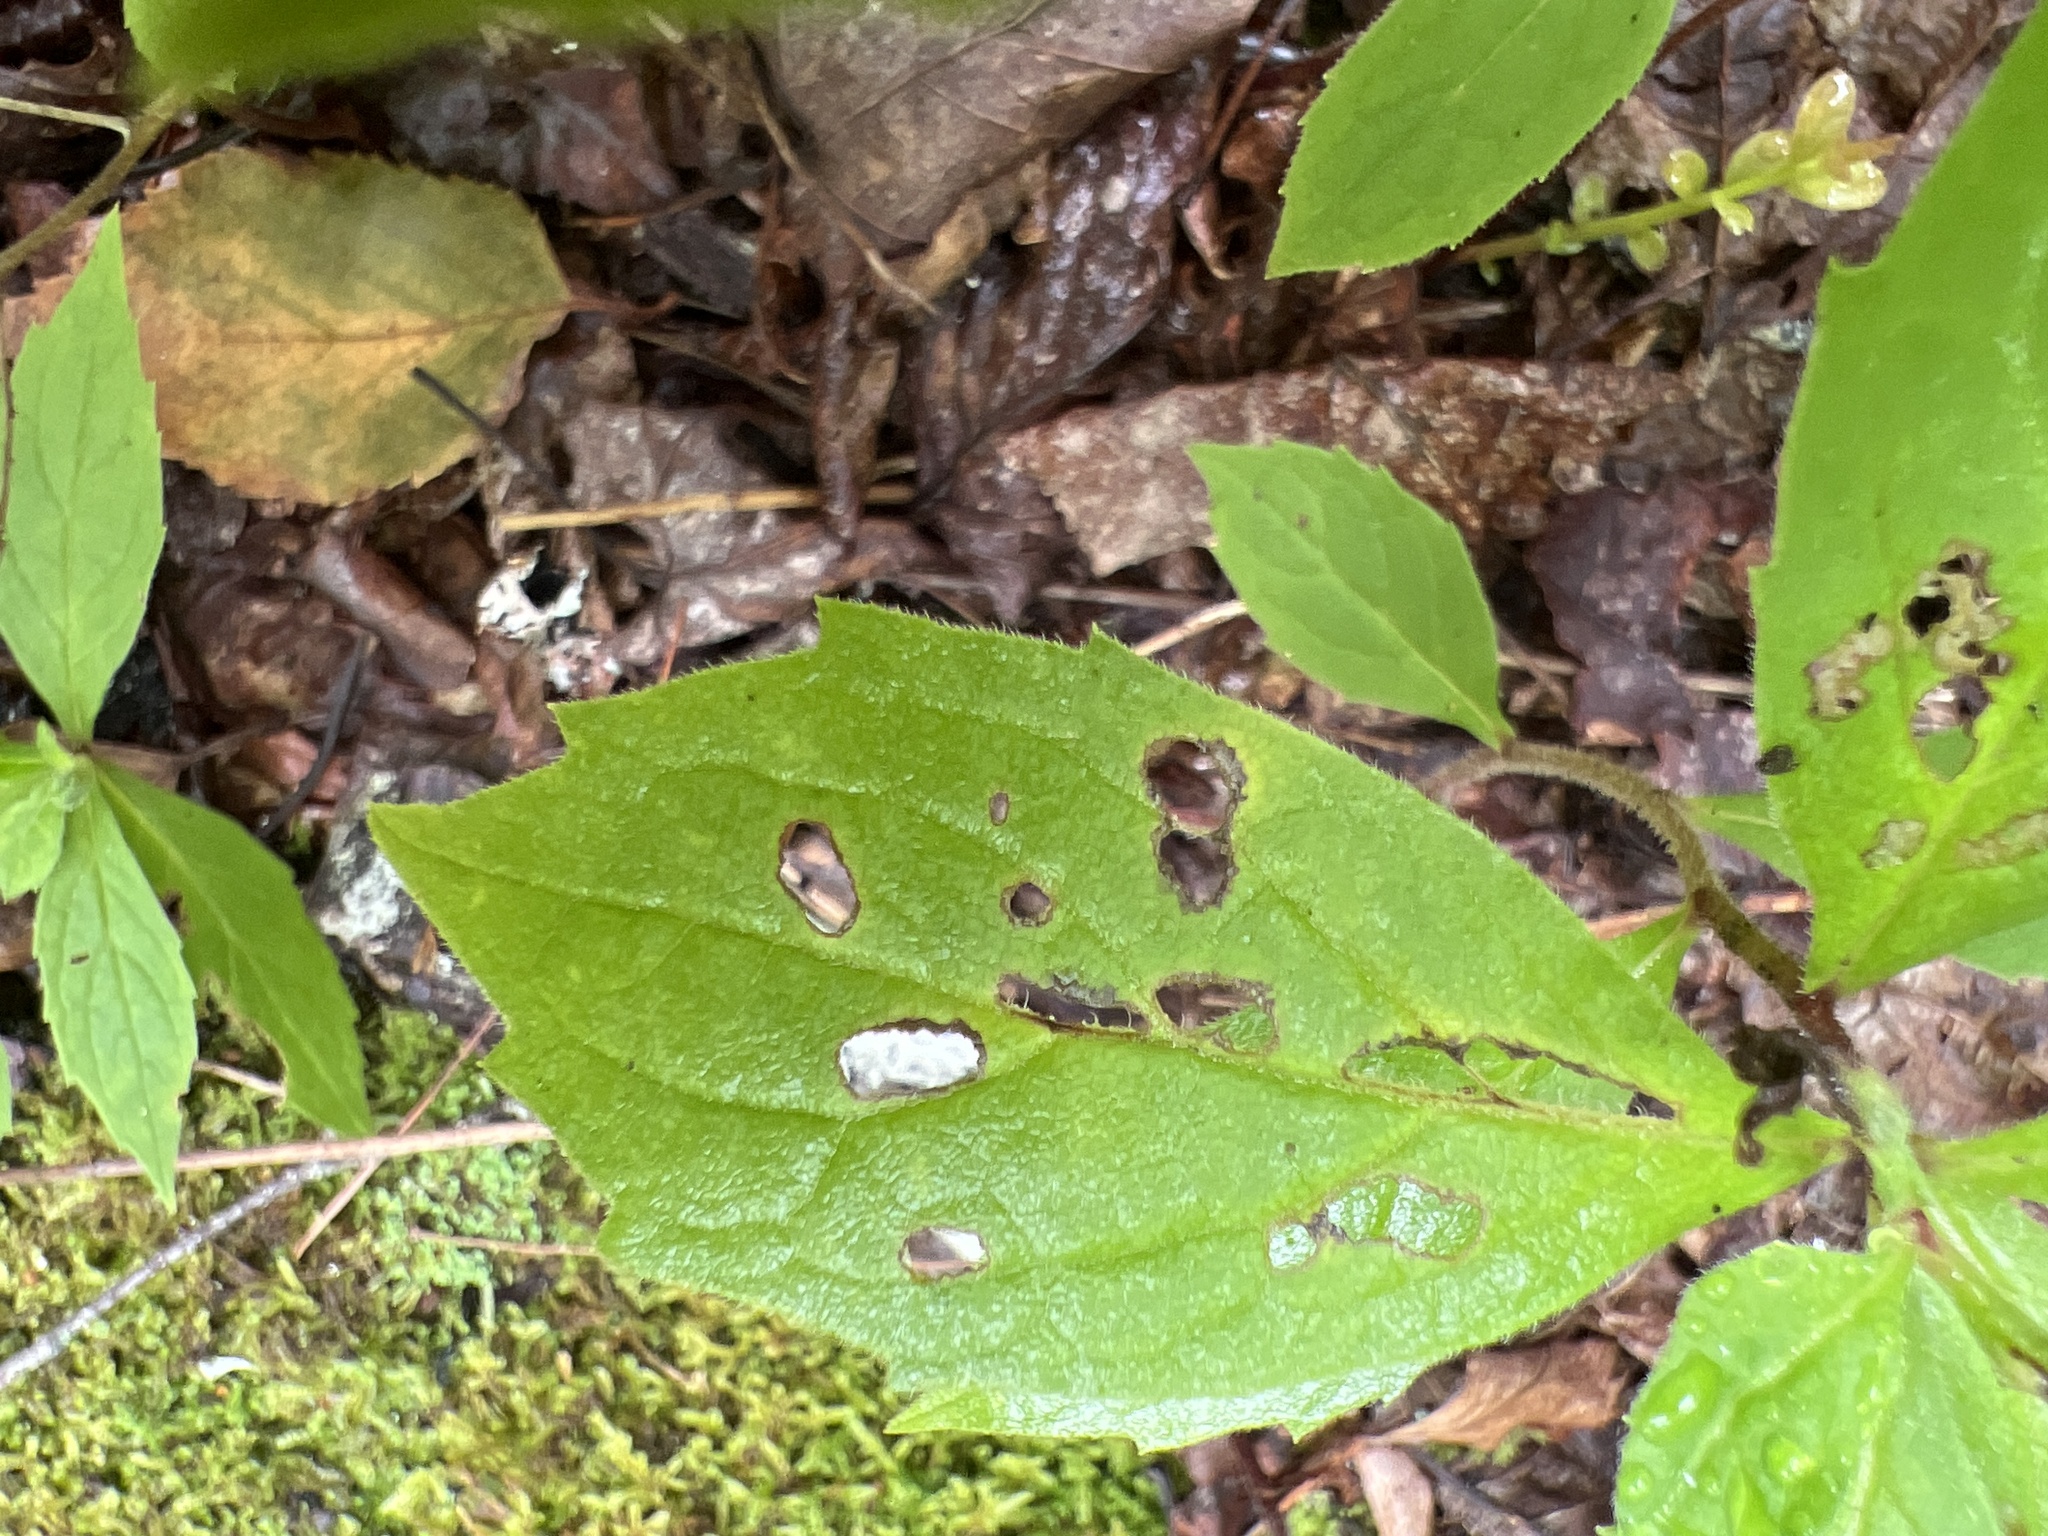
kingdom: Plantae
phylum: Tracheophyta
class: Magnoliopsida
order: Asterales
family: Asteraceae
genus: Oclemena
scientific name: Oclemena acuminata
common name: Mountain aster
